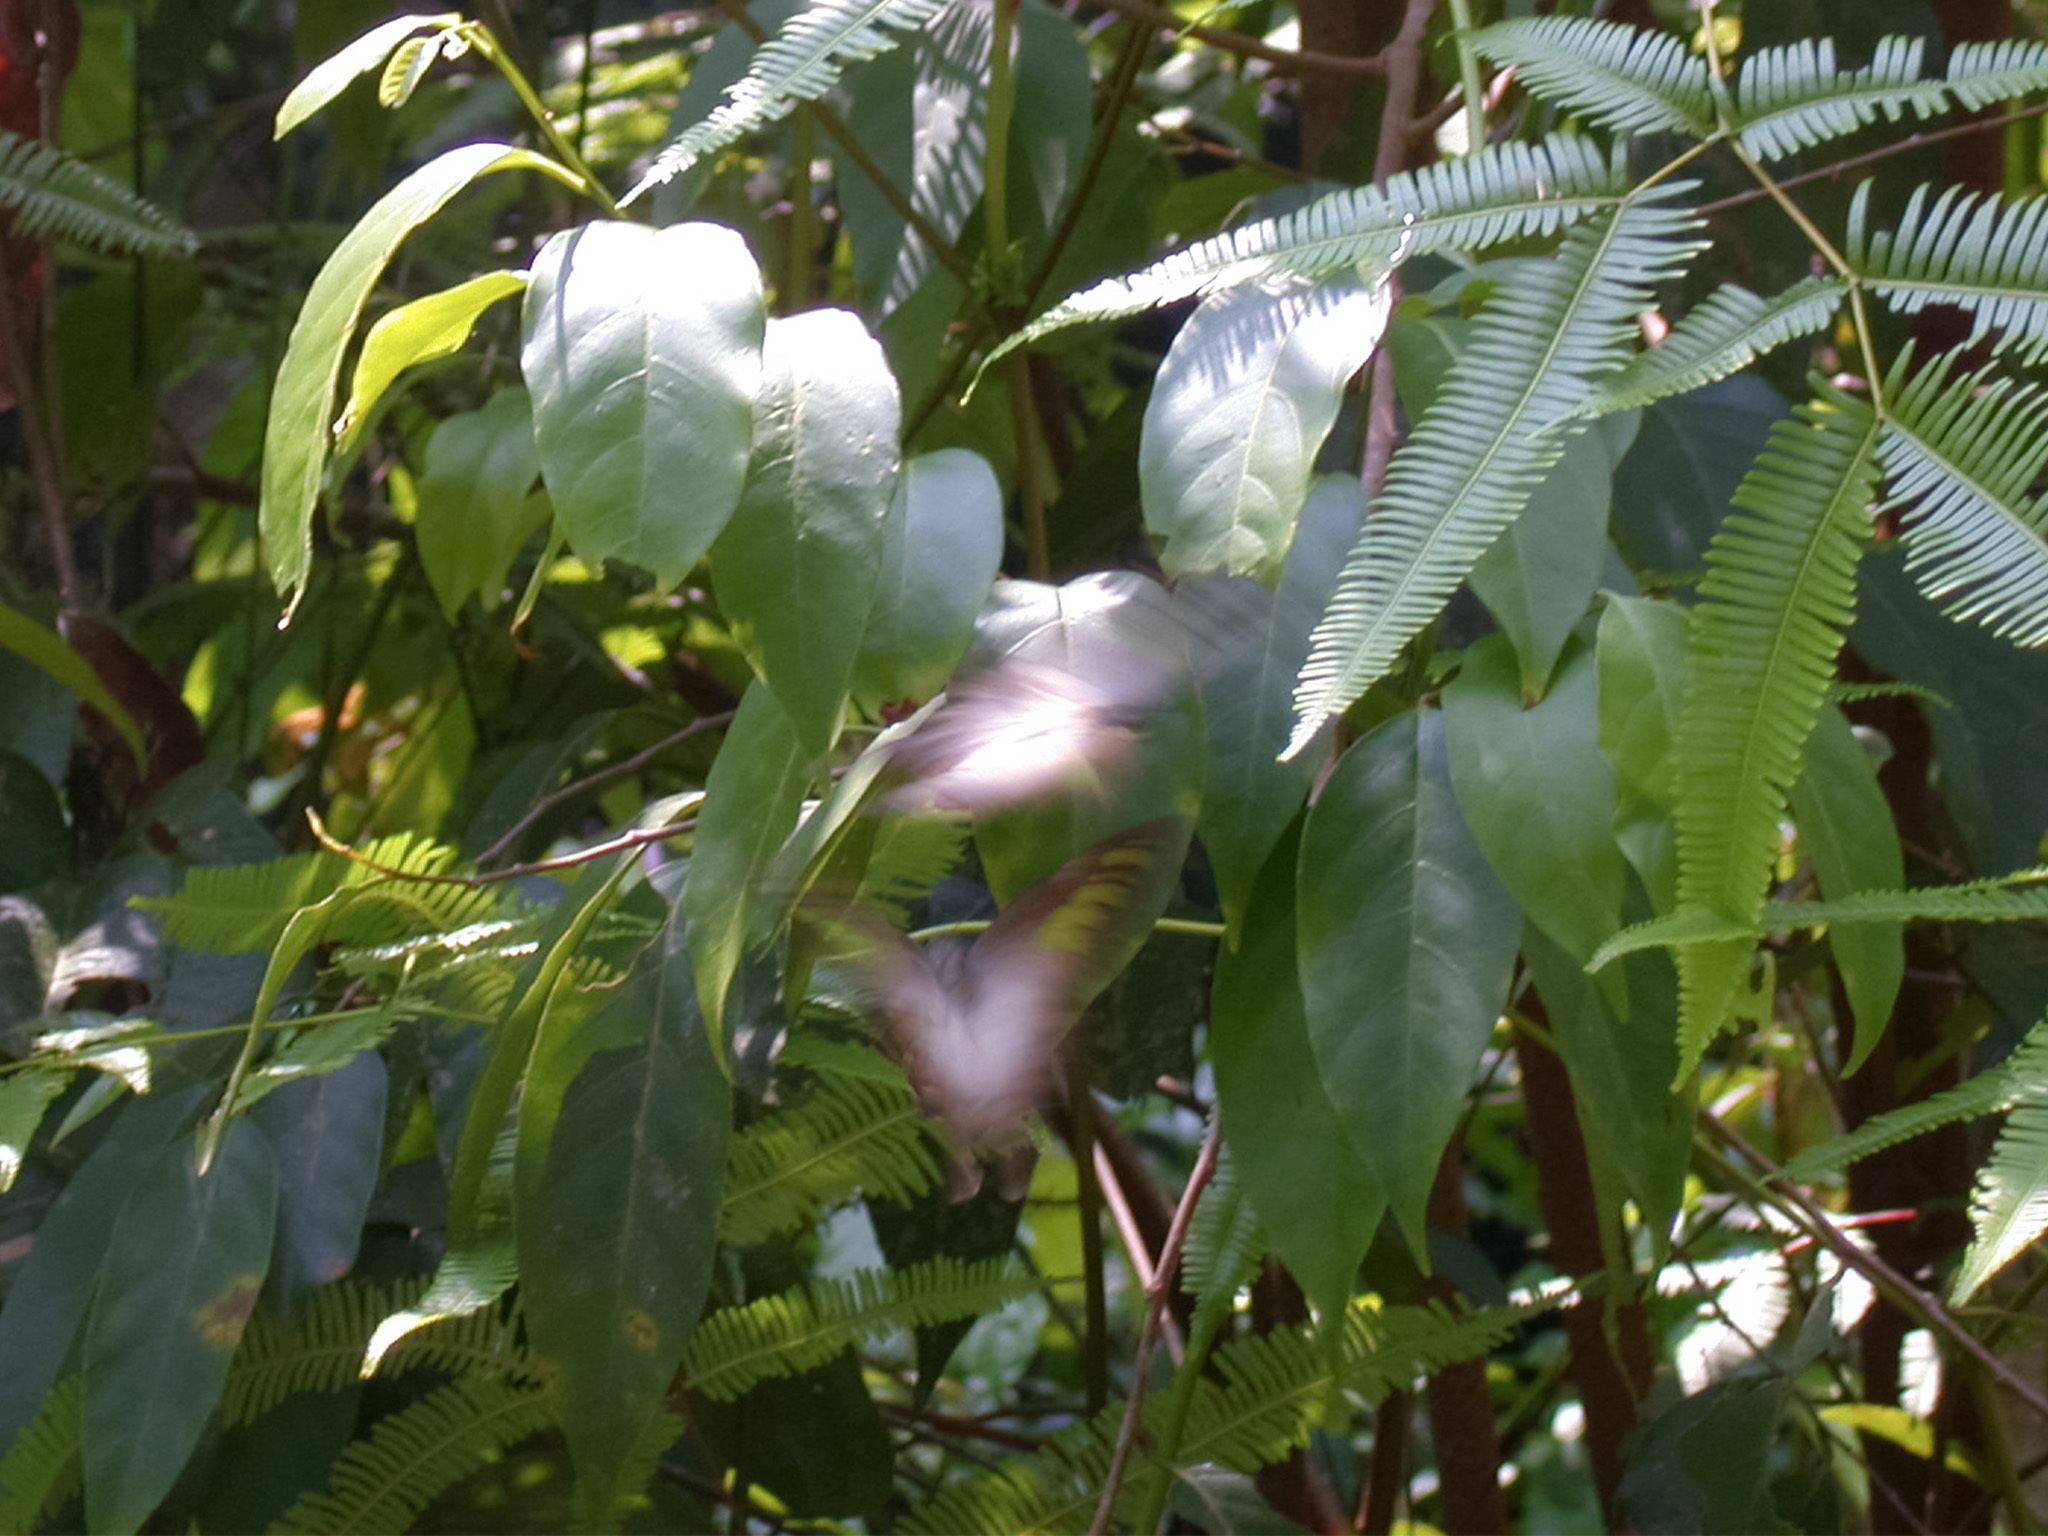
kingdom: Animalia
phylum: Arthropoda
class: Insecta
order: Lepidoptera
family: Papilionidae
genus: Graphium
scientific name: Graphium empedovana
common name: Malayan yellowbottle
